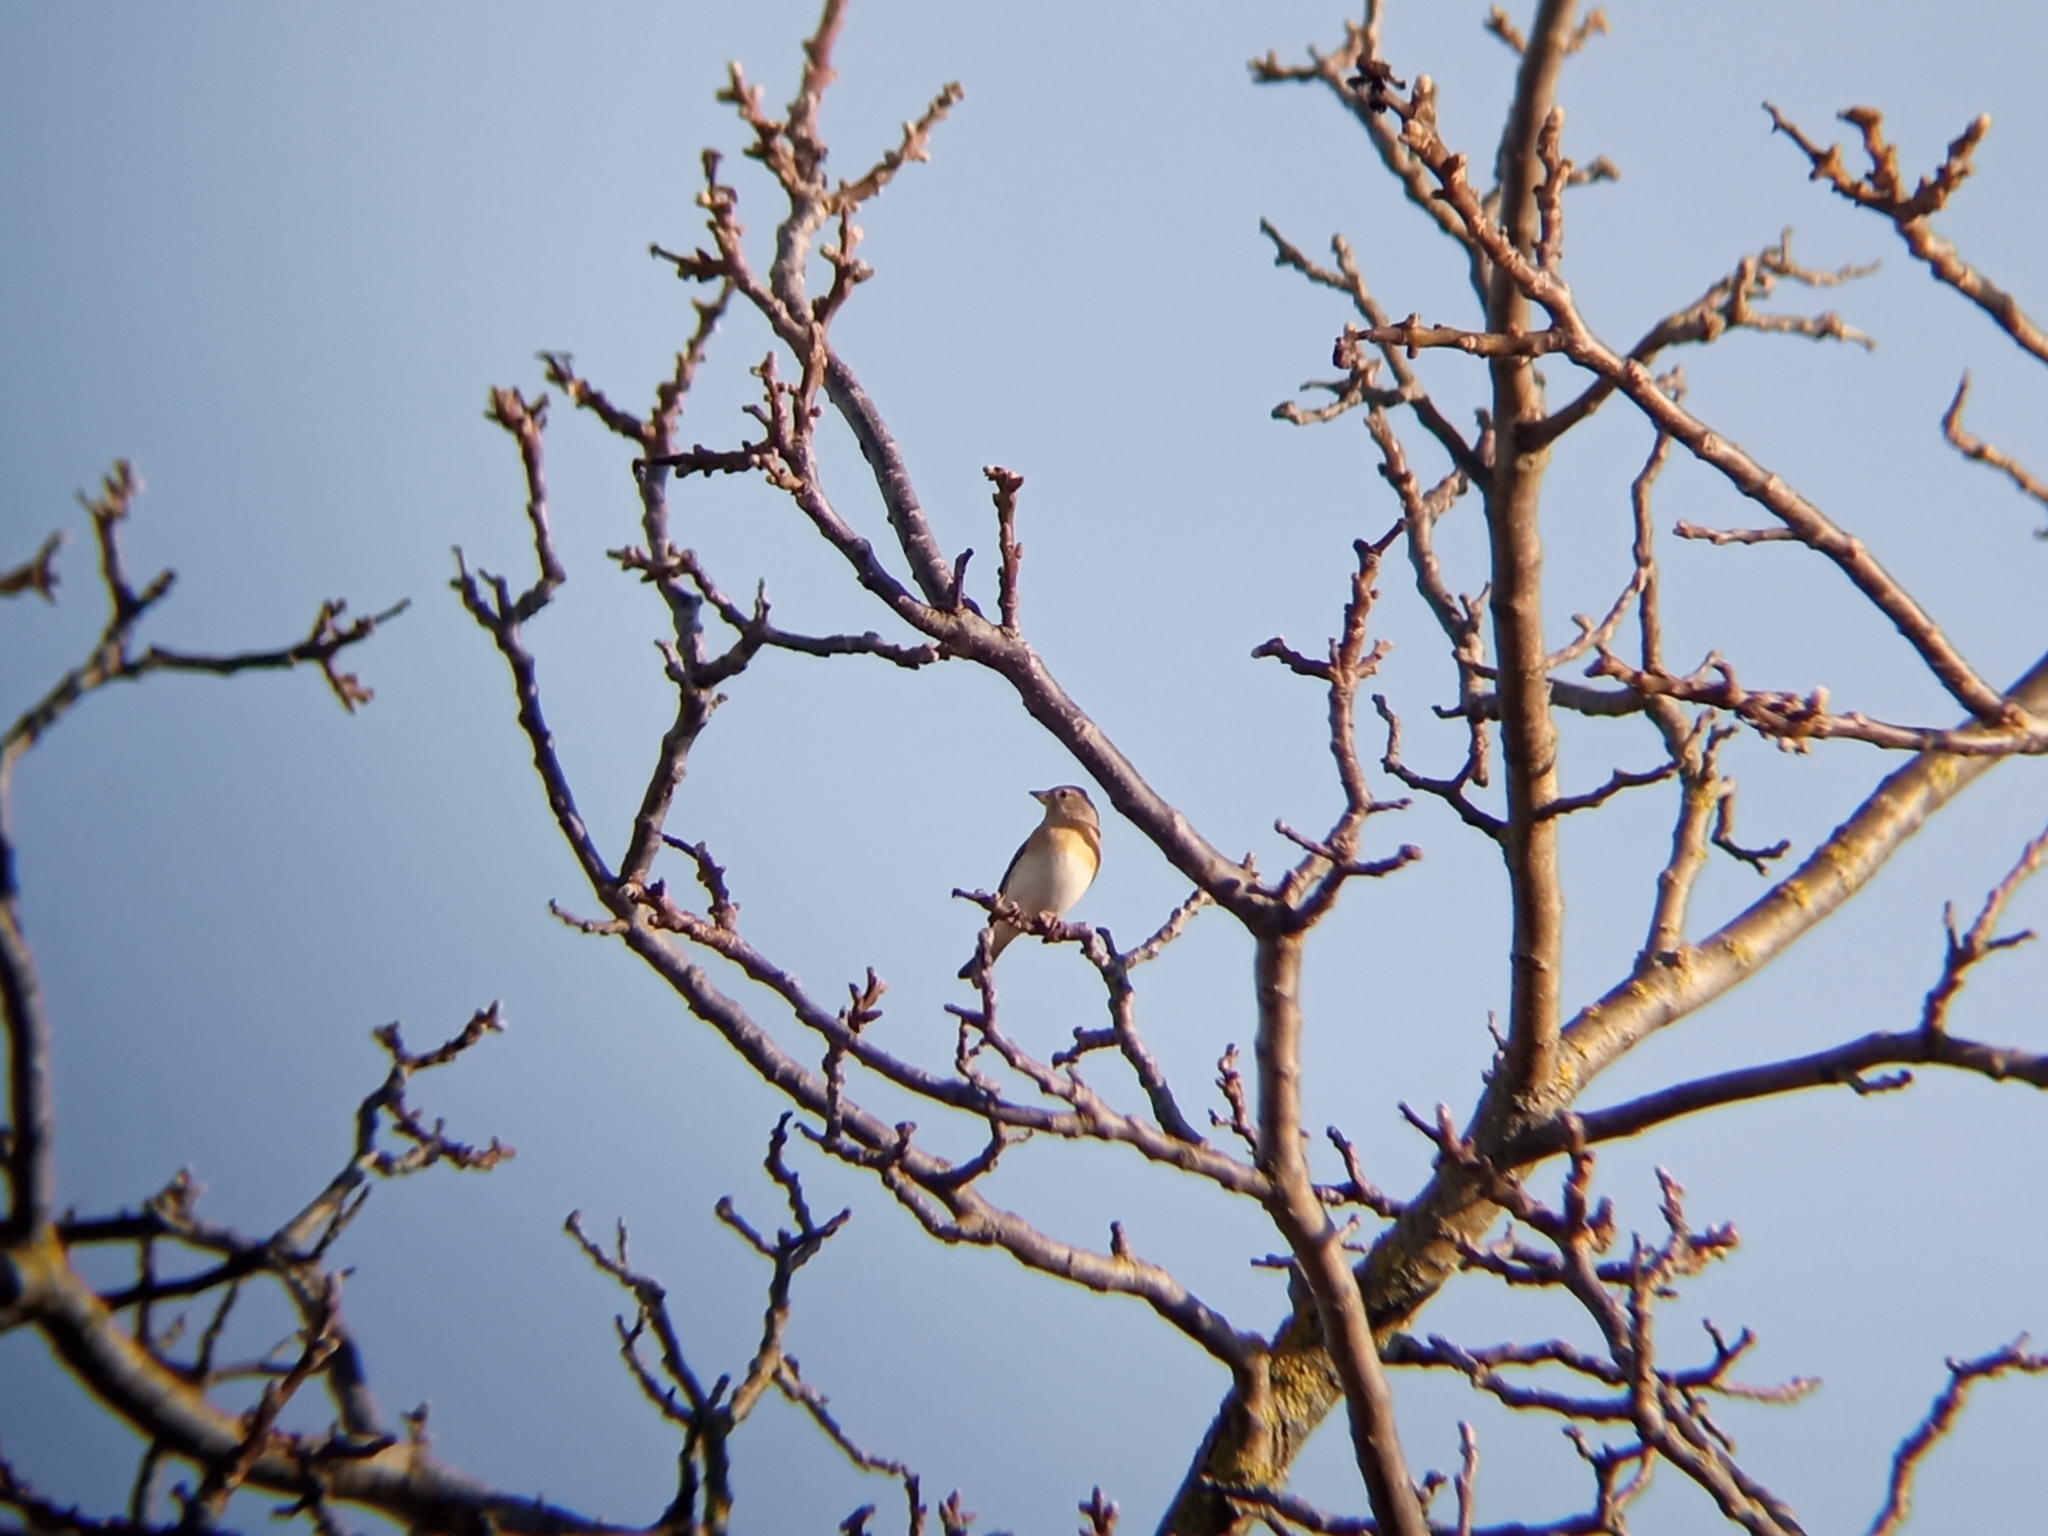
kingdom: Animalia
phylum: Chordata
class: Aves
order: Passeriformes
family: Fringillidae
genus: Fringilla
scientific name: Fringilla montifringilla
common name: Brambling
